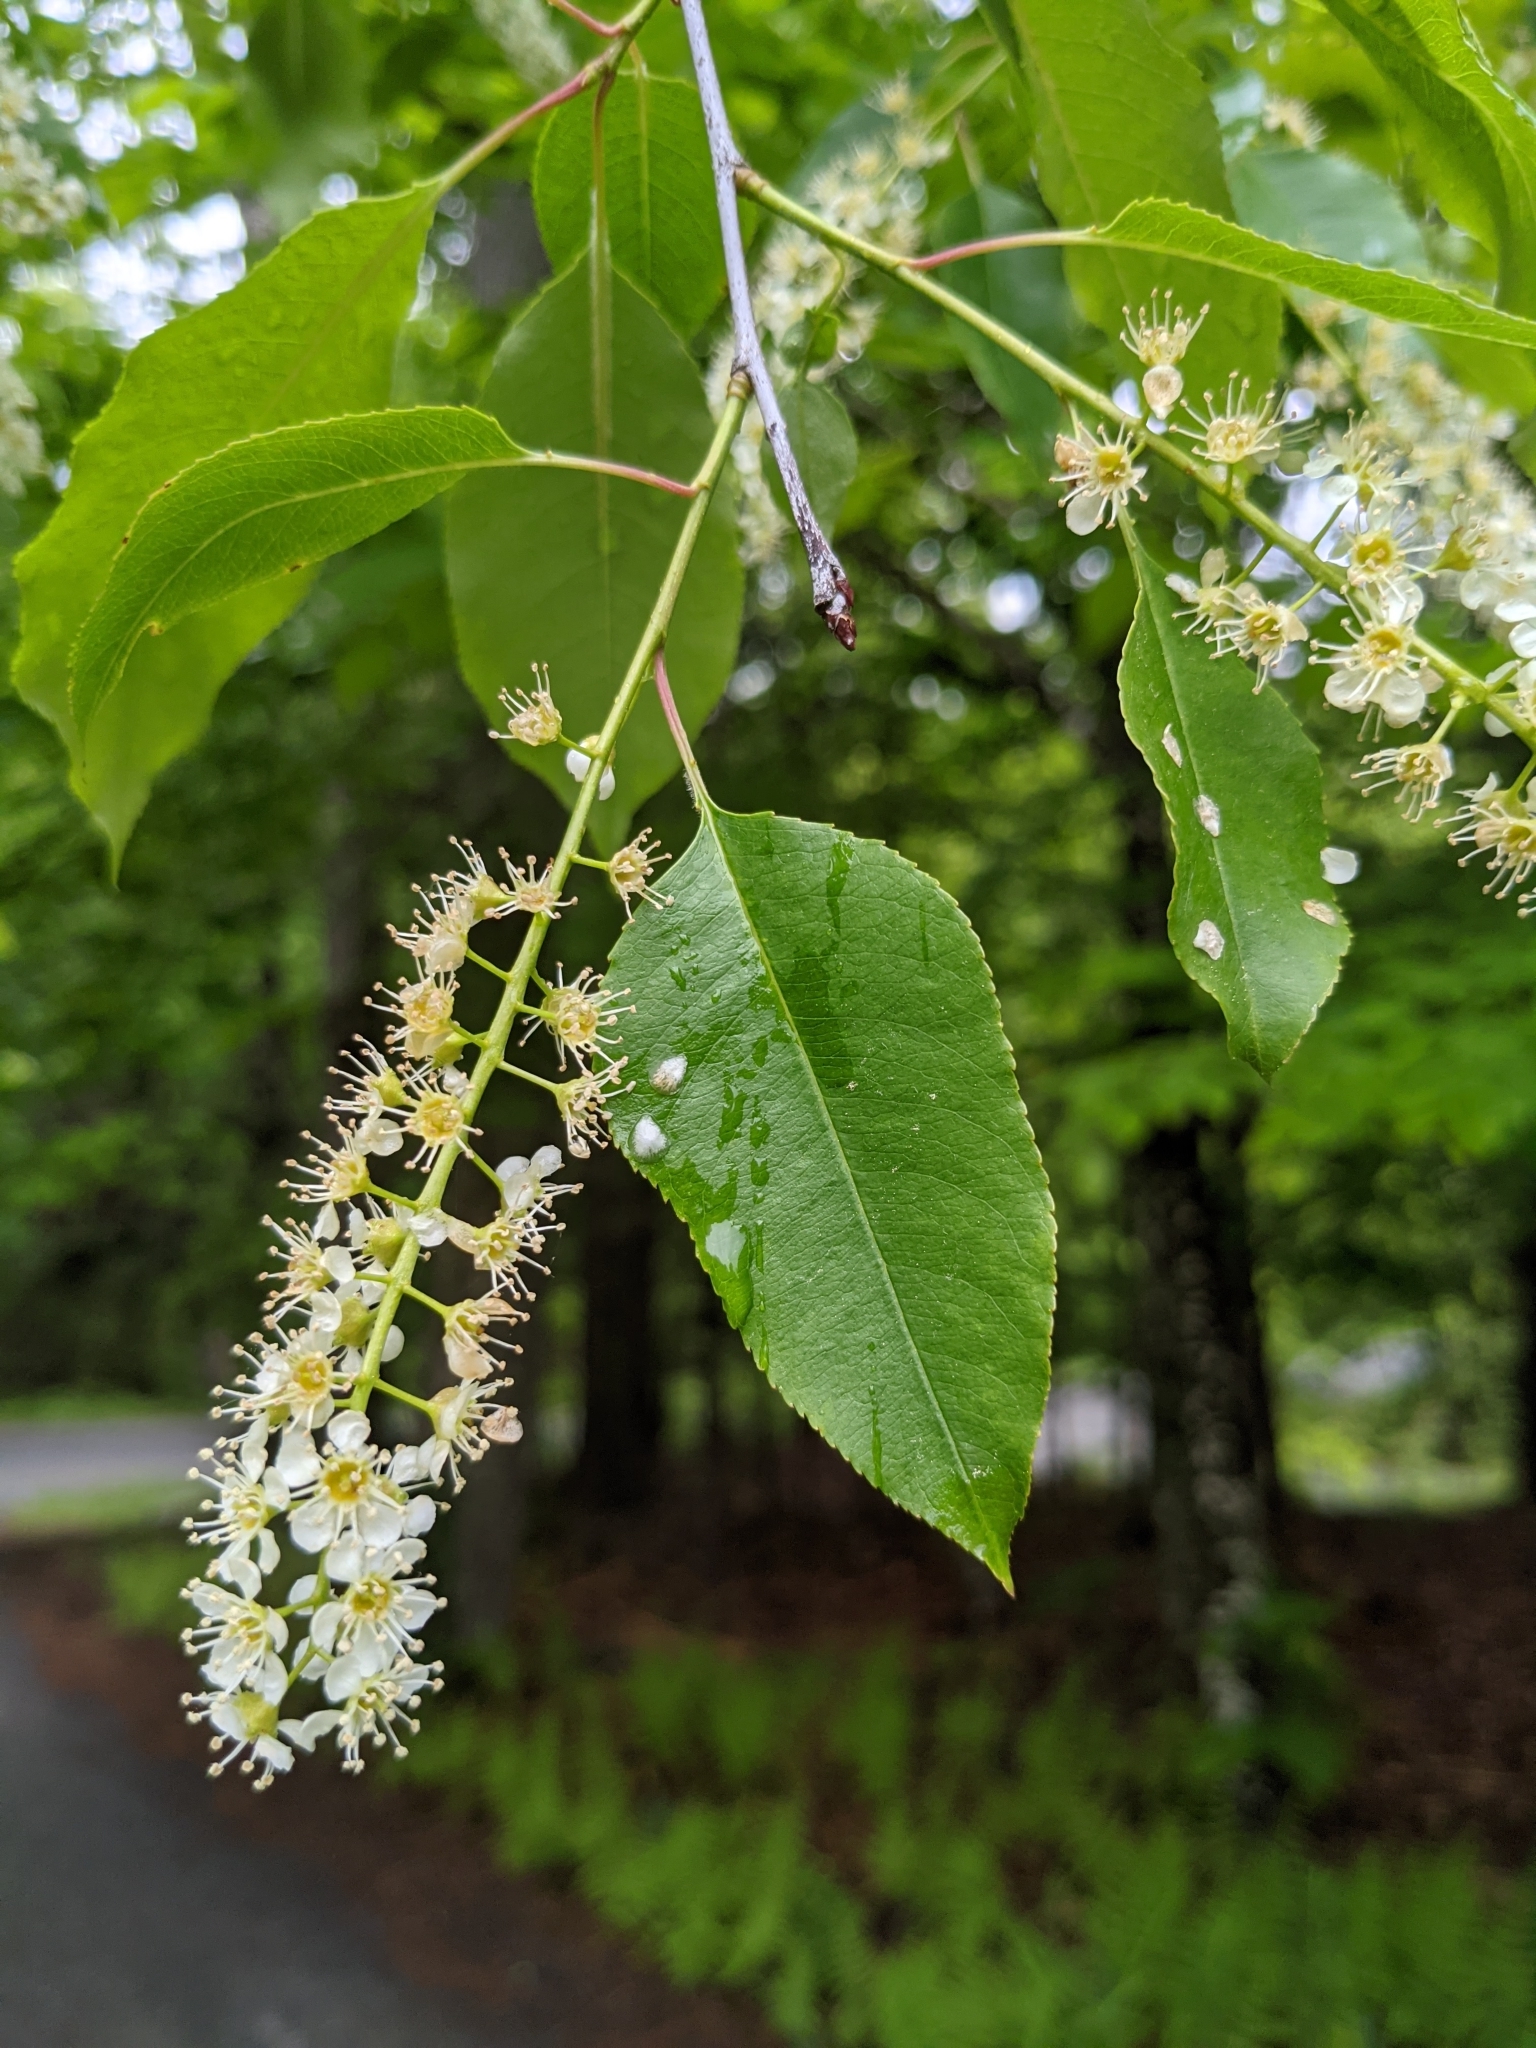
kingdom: Plantae
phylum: Tracheophyta
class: Magnoliopsida
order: Rosales
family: Rosaceae
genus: Prunus
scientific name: Prunus serotina
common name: Black cherry
